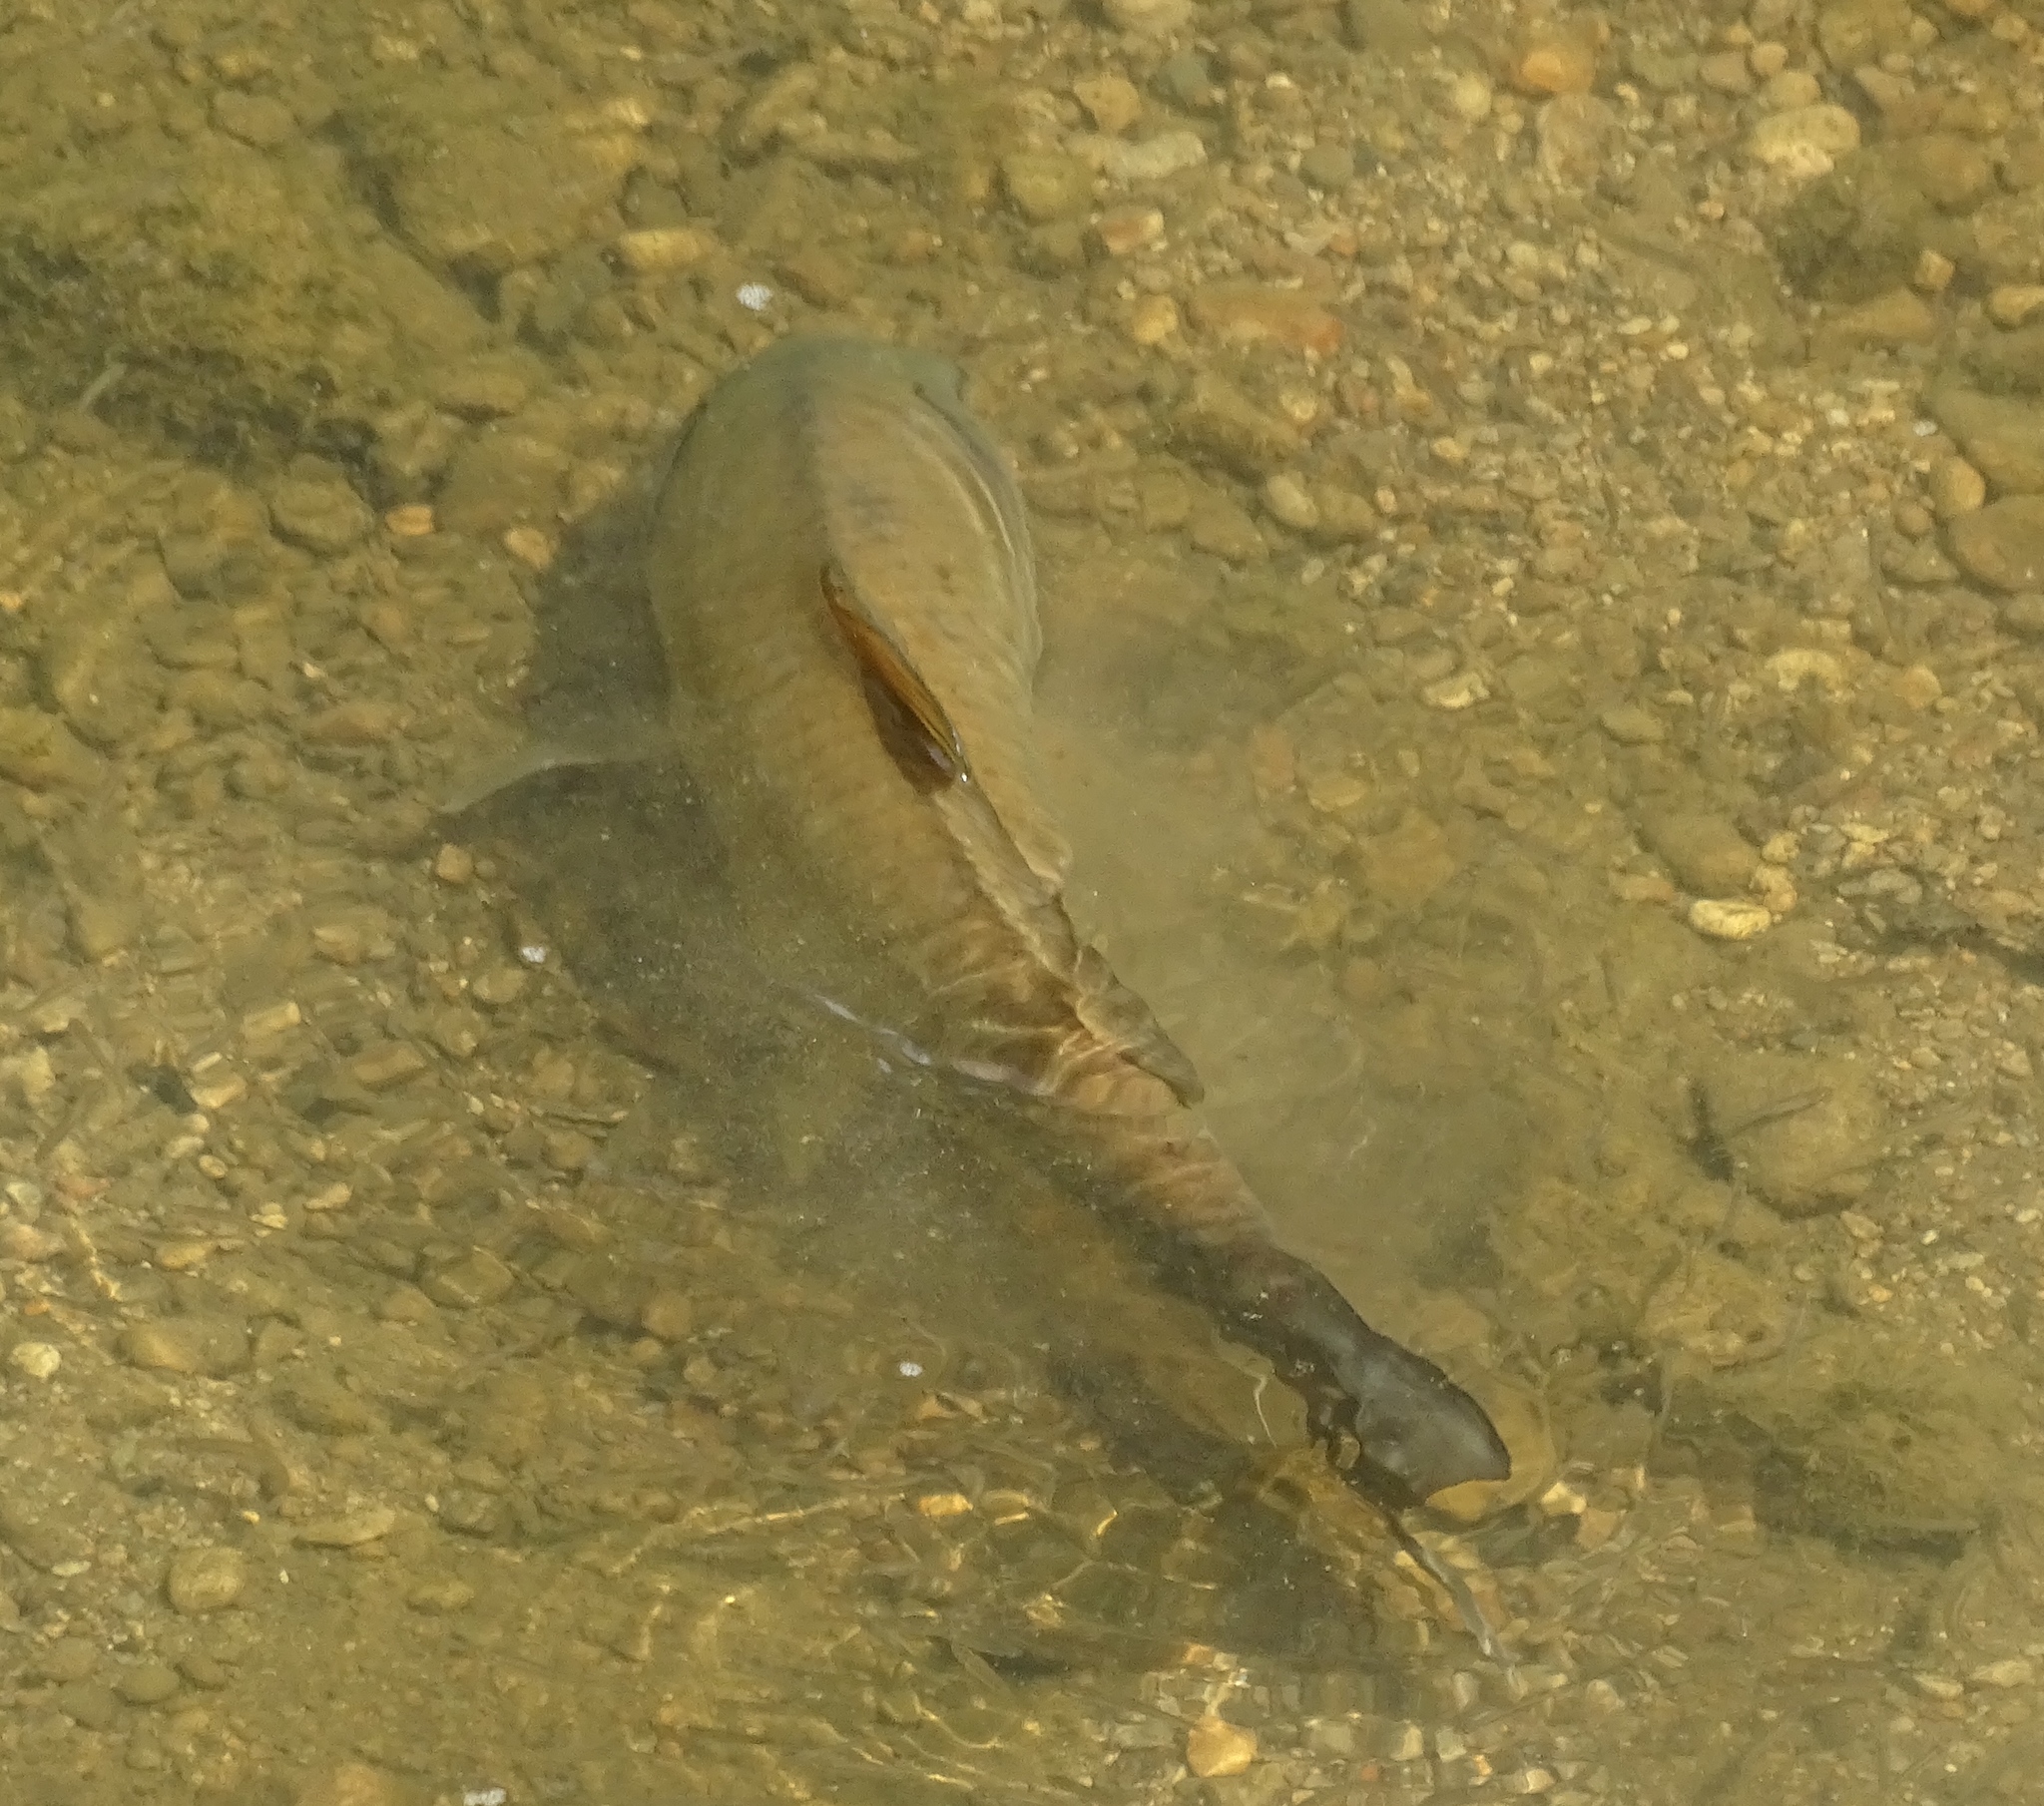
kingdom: Animalia
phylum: Chordata
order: Cypriniformes
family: Catostomidae
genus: Ictiobus
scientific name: Ictiobus bubalus
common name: Smallmouth buffalo
